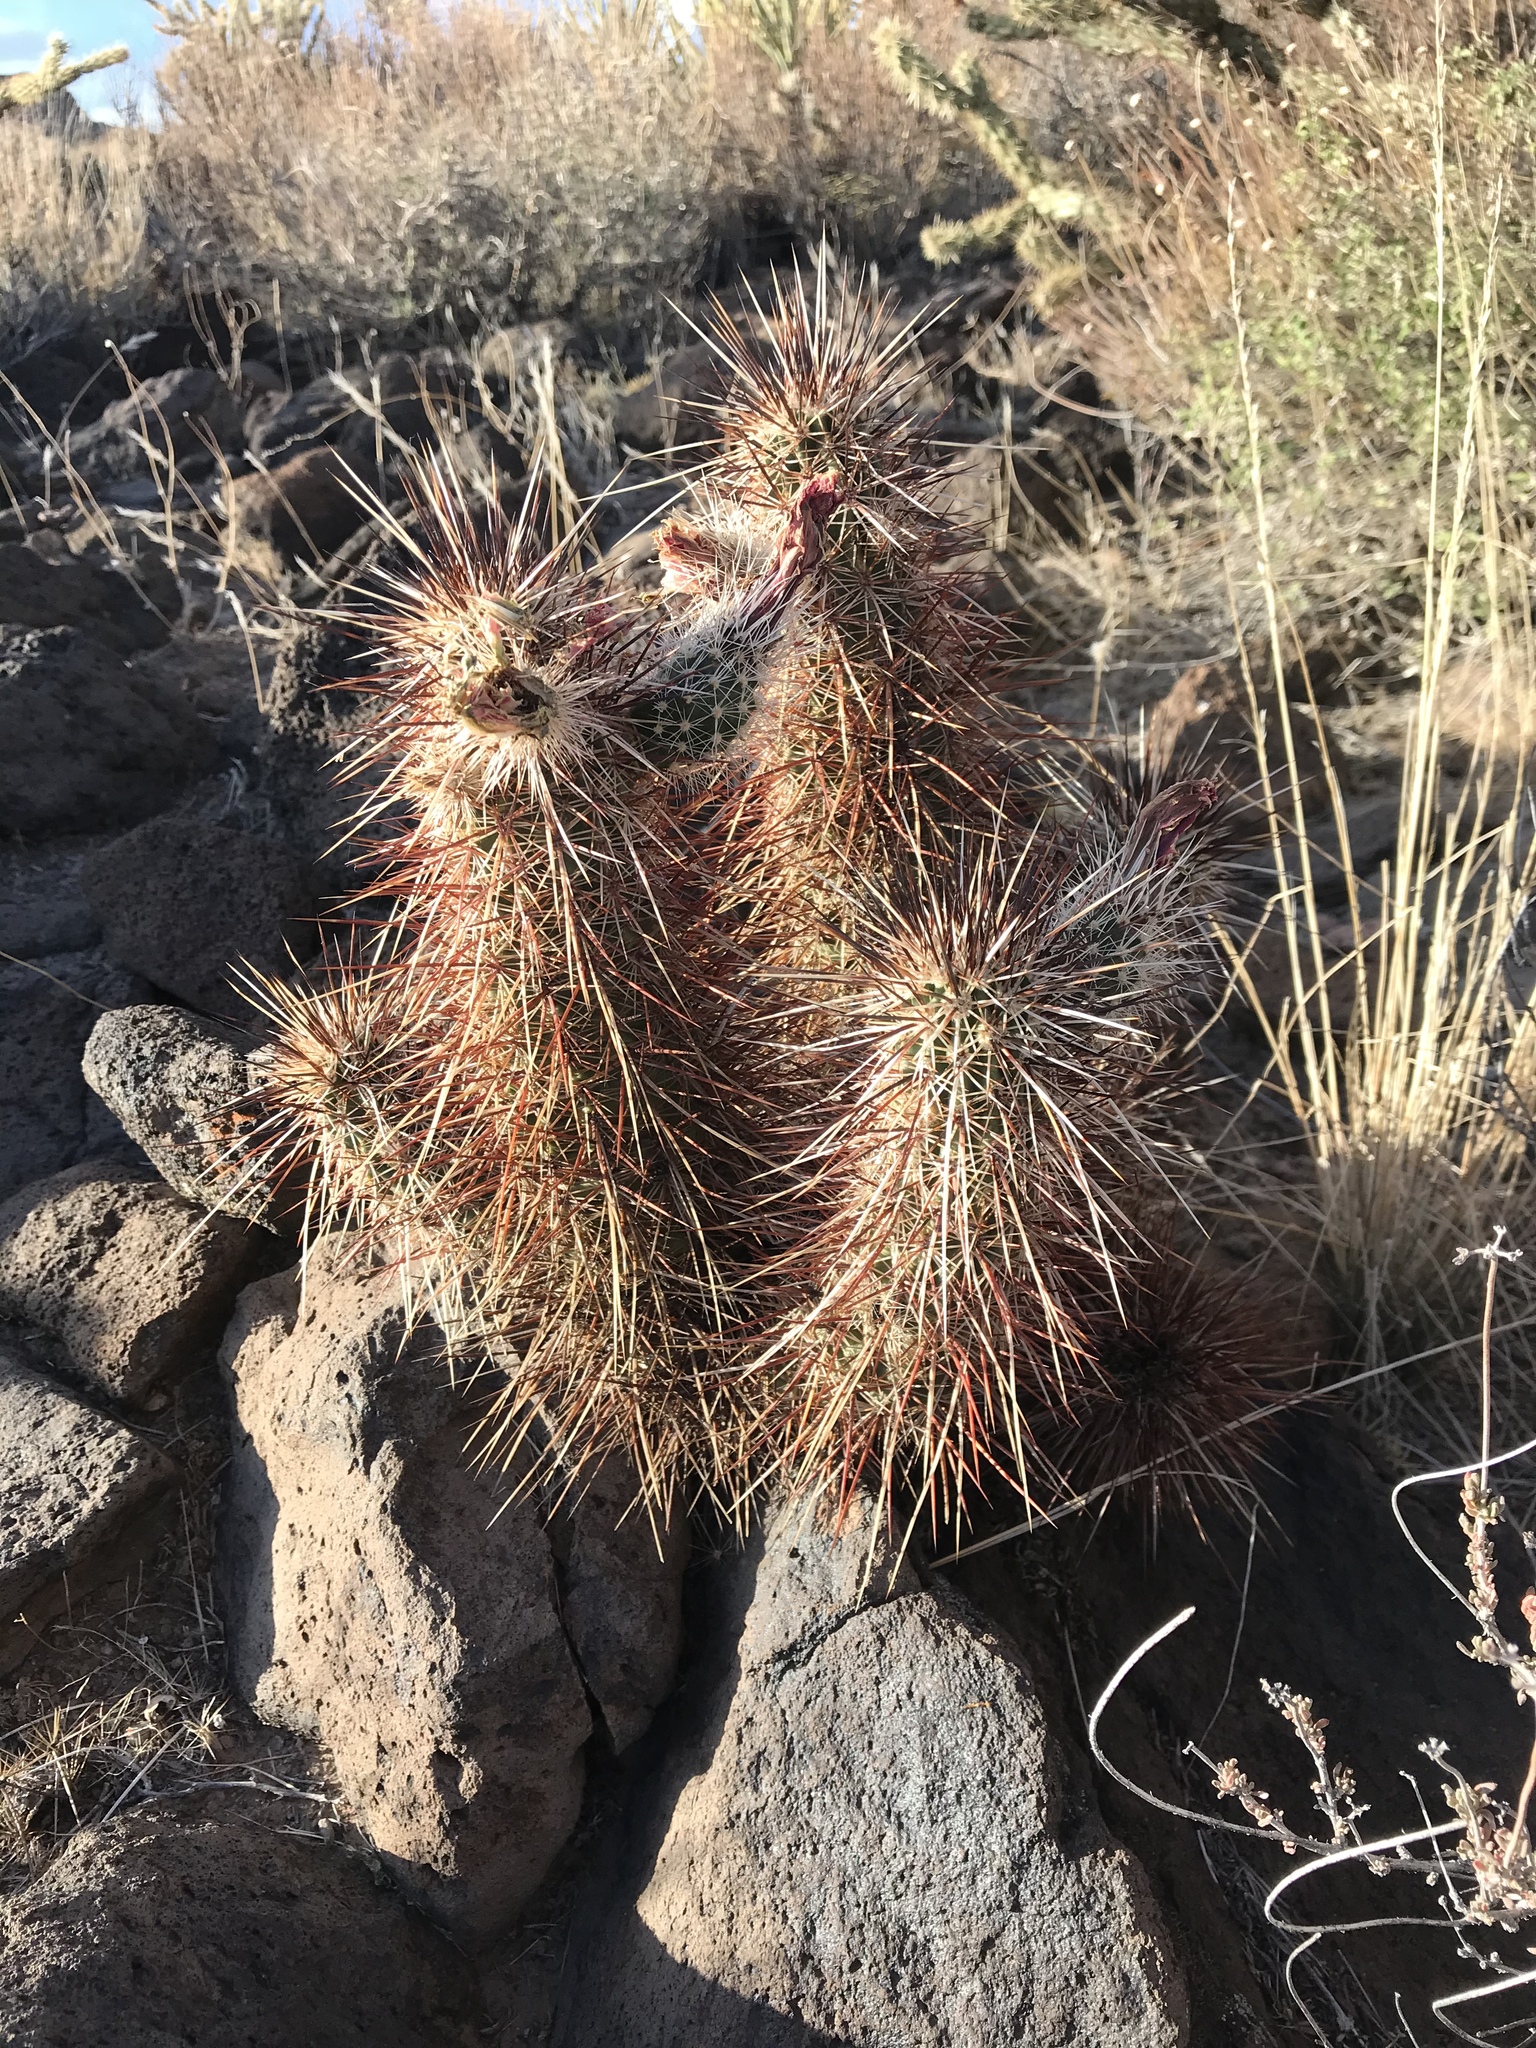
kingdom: Plantae
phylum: Tracheophyta
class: Magnoliopsida
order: Caryophyllales
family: Cactaceae
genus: Echinocereus
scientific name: Echinocereus engelmannii
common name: Engelmann's hedgehog cactus
